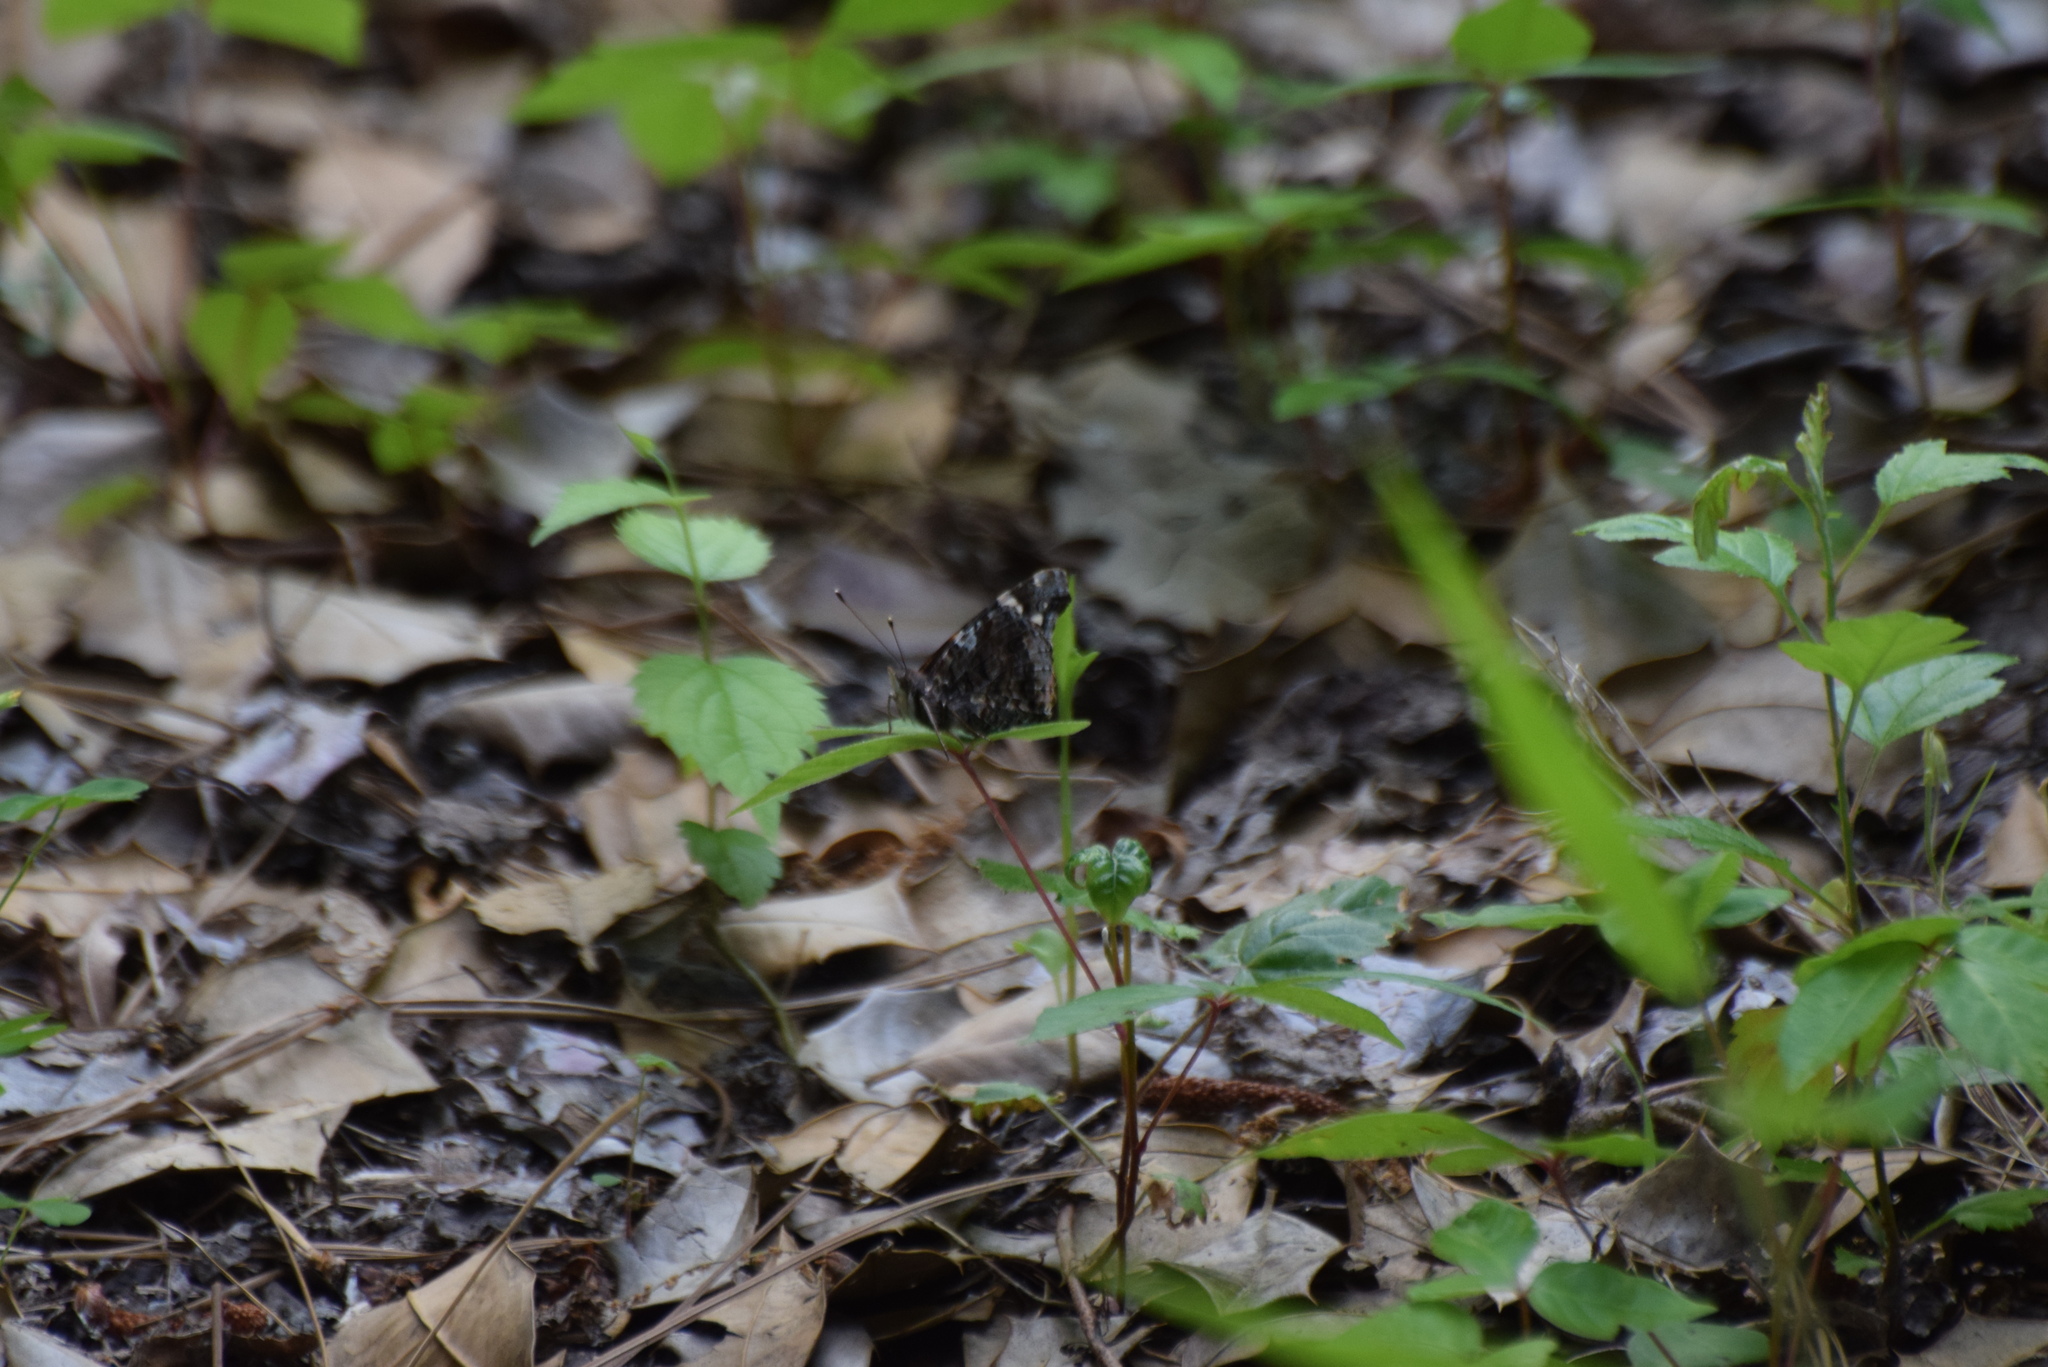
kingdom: Animalia
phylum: Arthropoda
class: Insecta
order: Lepidoptera
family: Nymphalidae
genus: Vanessa
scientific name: Vanessa atalanta
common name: Red admiral
